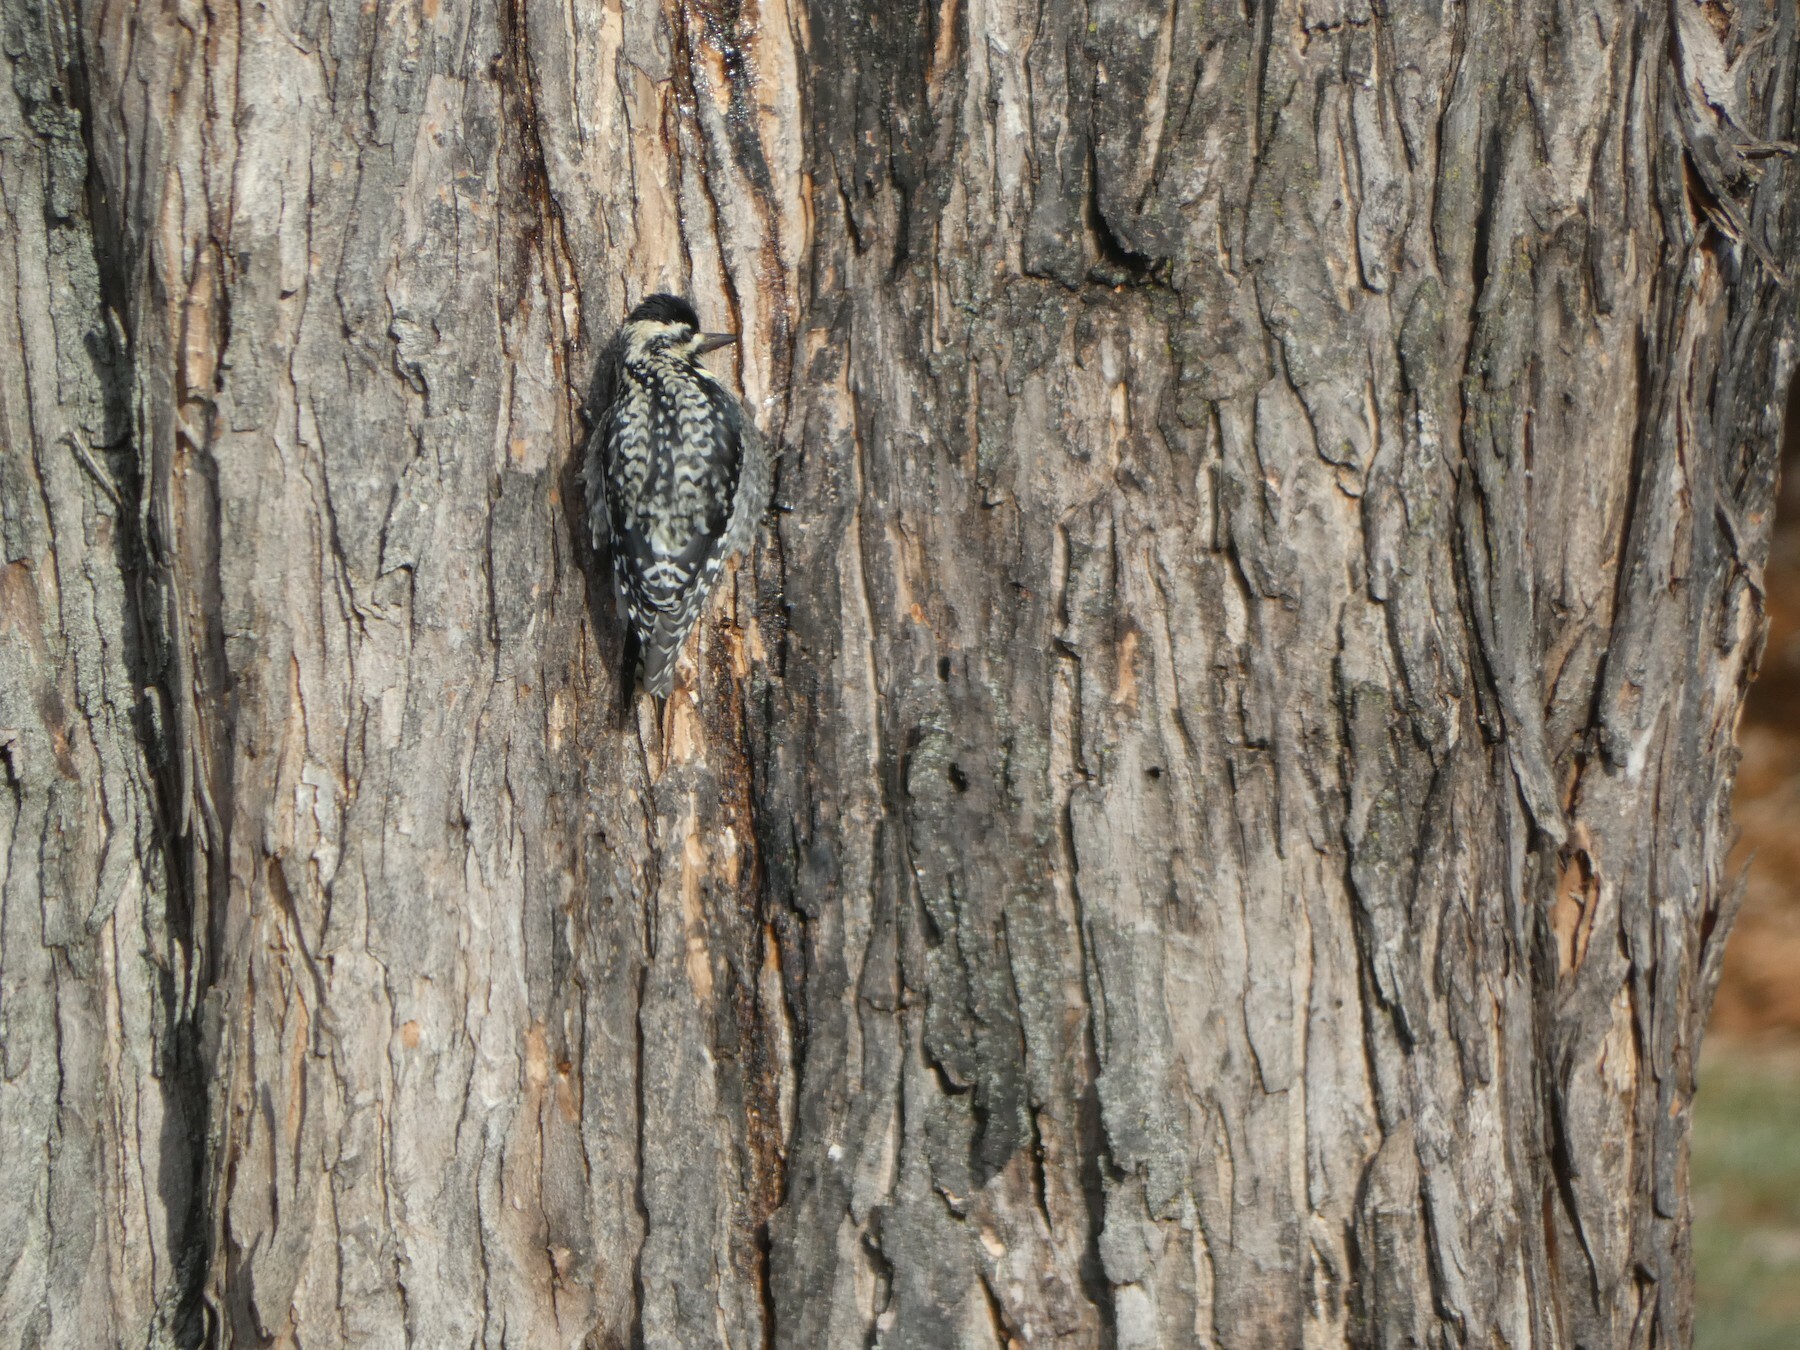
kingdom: Animalia
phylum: Chordata
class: Aves
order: Piciformes
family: Picidae
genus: Sphyrapicus
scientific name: Sphyrapicus varius
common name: Yellow-bellied sapsucker
